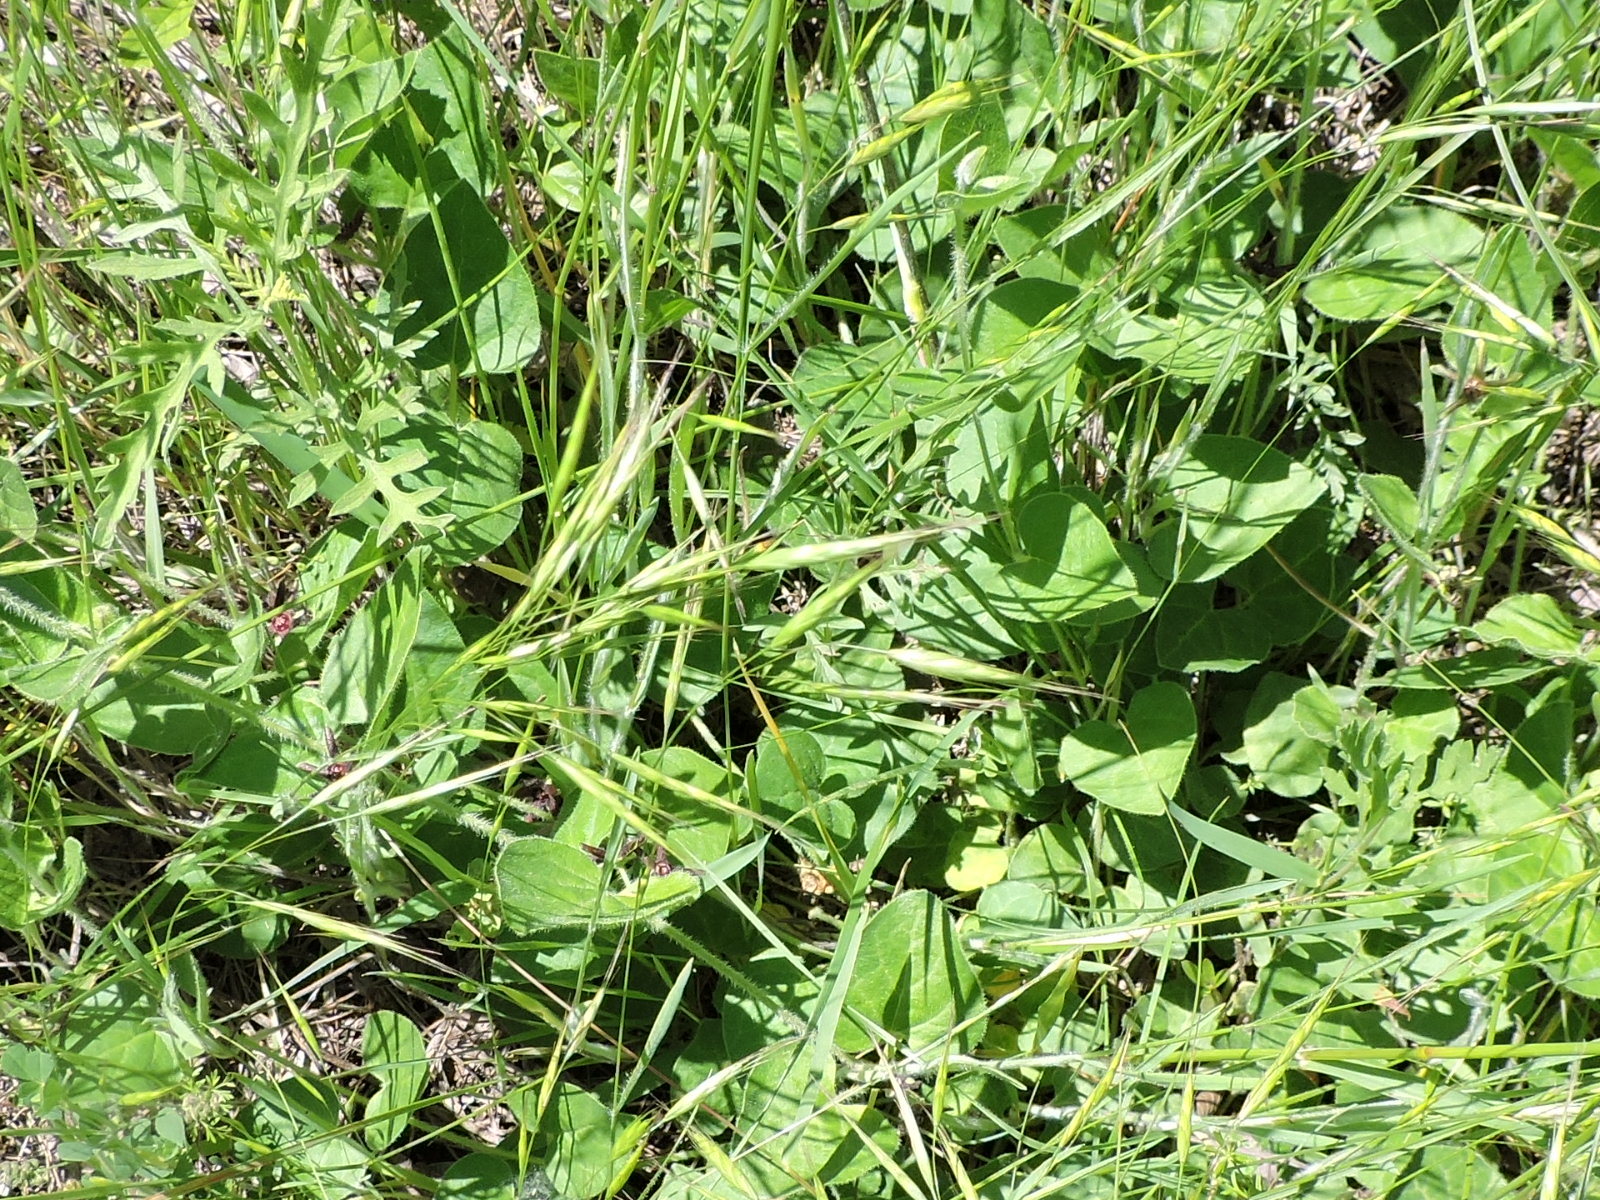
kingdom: Plantae
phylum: Tracheophyta
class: Magnoliopsida
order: Gentianales
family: Apocynaceae
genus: Chthamalia
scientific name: Chthamalia biflora
